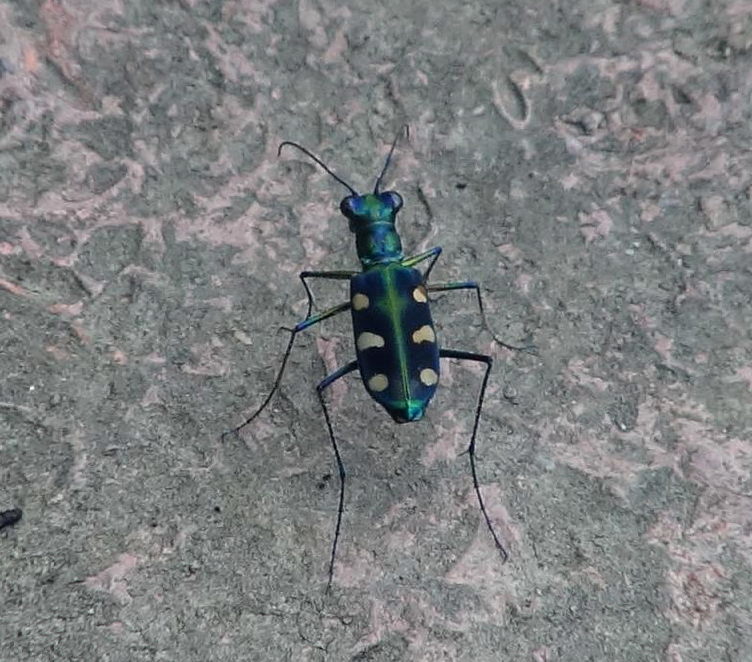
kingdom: Animalia
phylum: Arthropoda
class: Insecta
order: Coleoptera
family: Carabidae
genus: Cicindela
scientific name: Cicindela batesi
